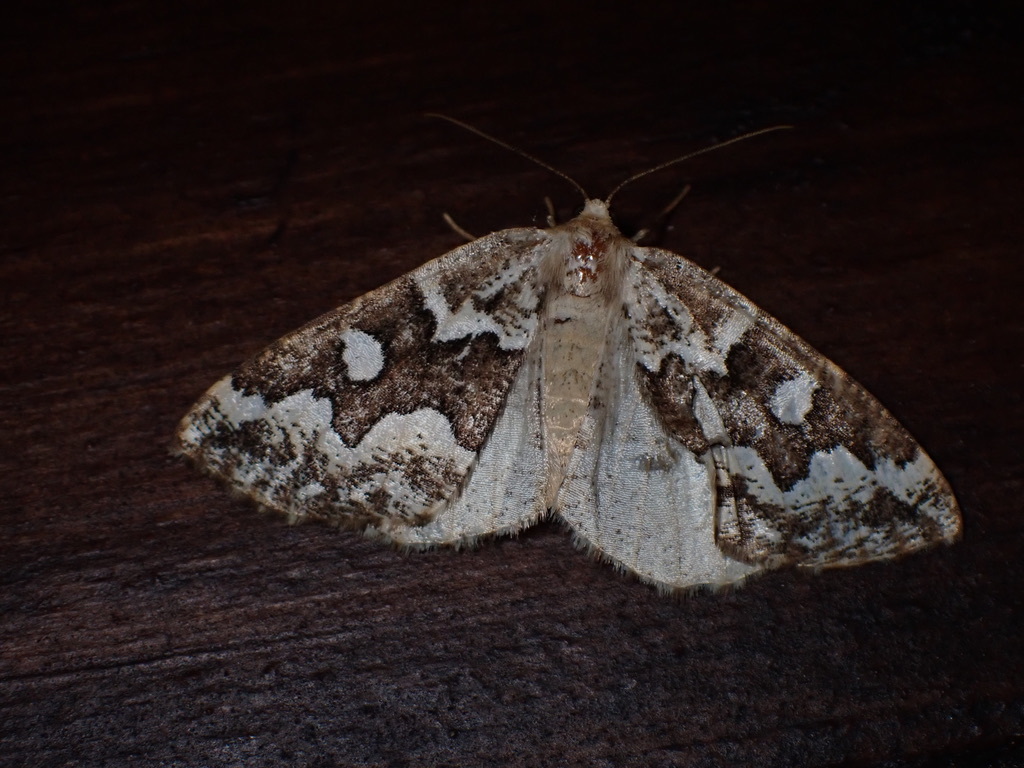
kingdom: Animalia
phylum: Arthropoda
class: Insecta
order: Lepidoptera
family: Geometridae
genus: Caripeta
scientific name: Caripeta divisata
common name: Gray spruce looper
